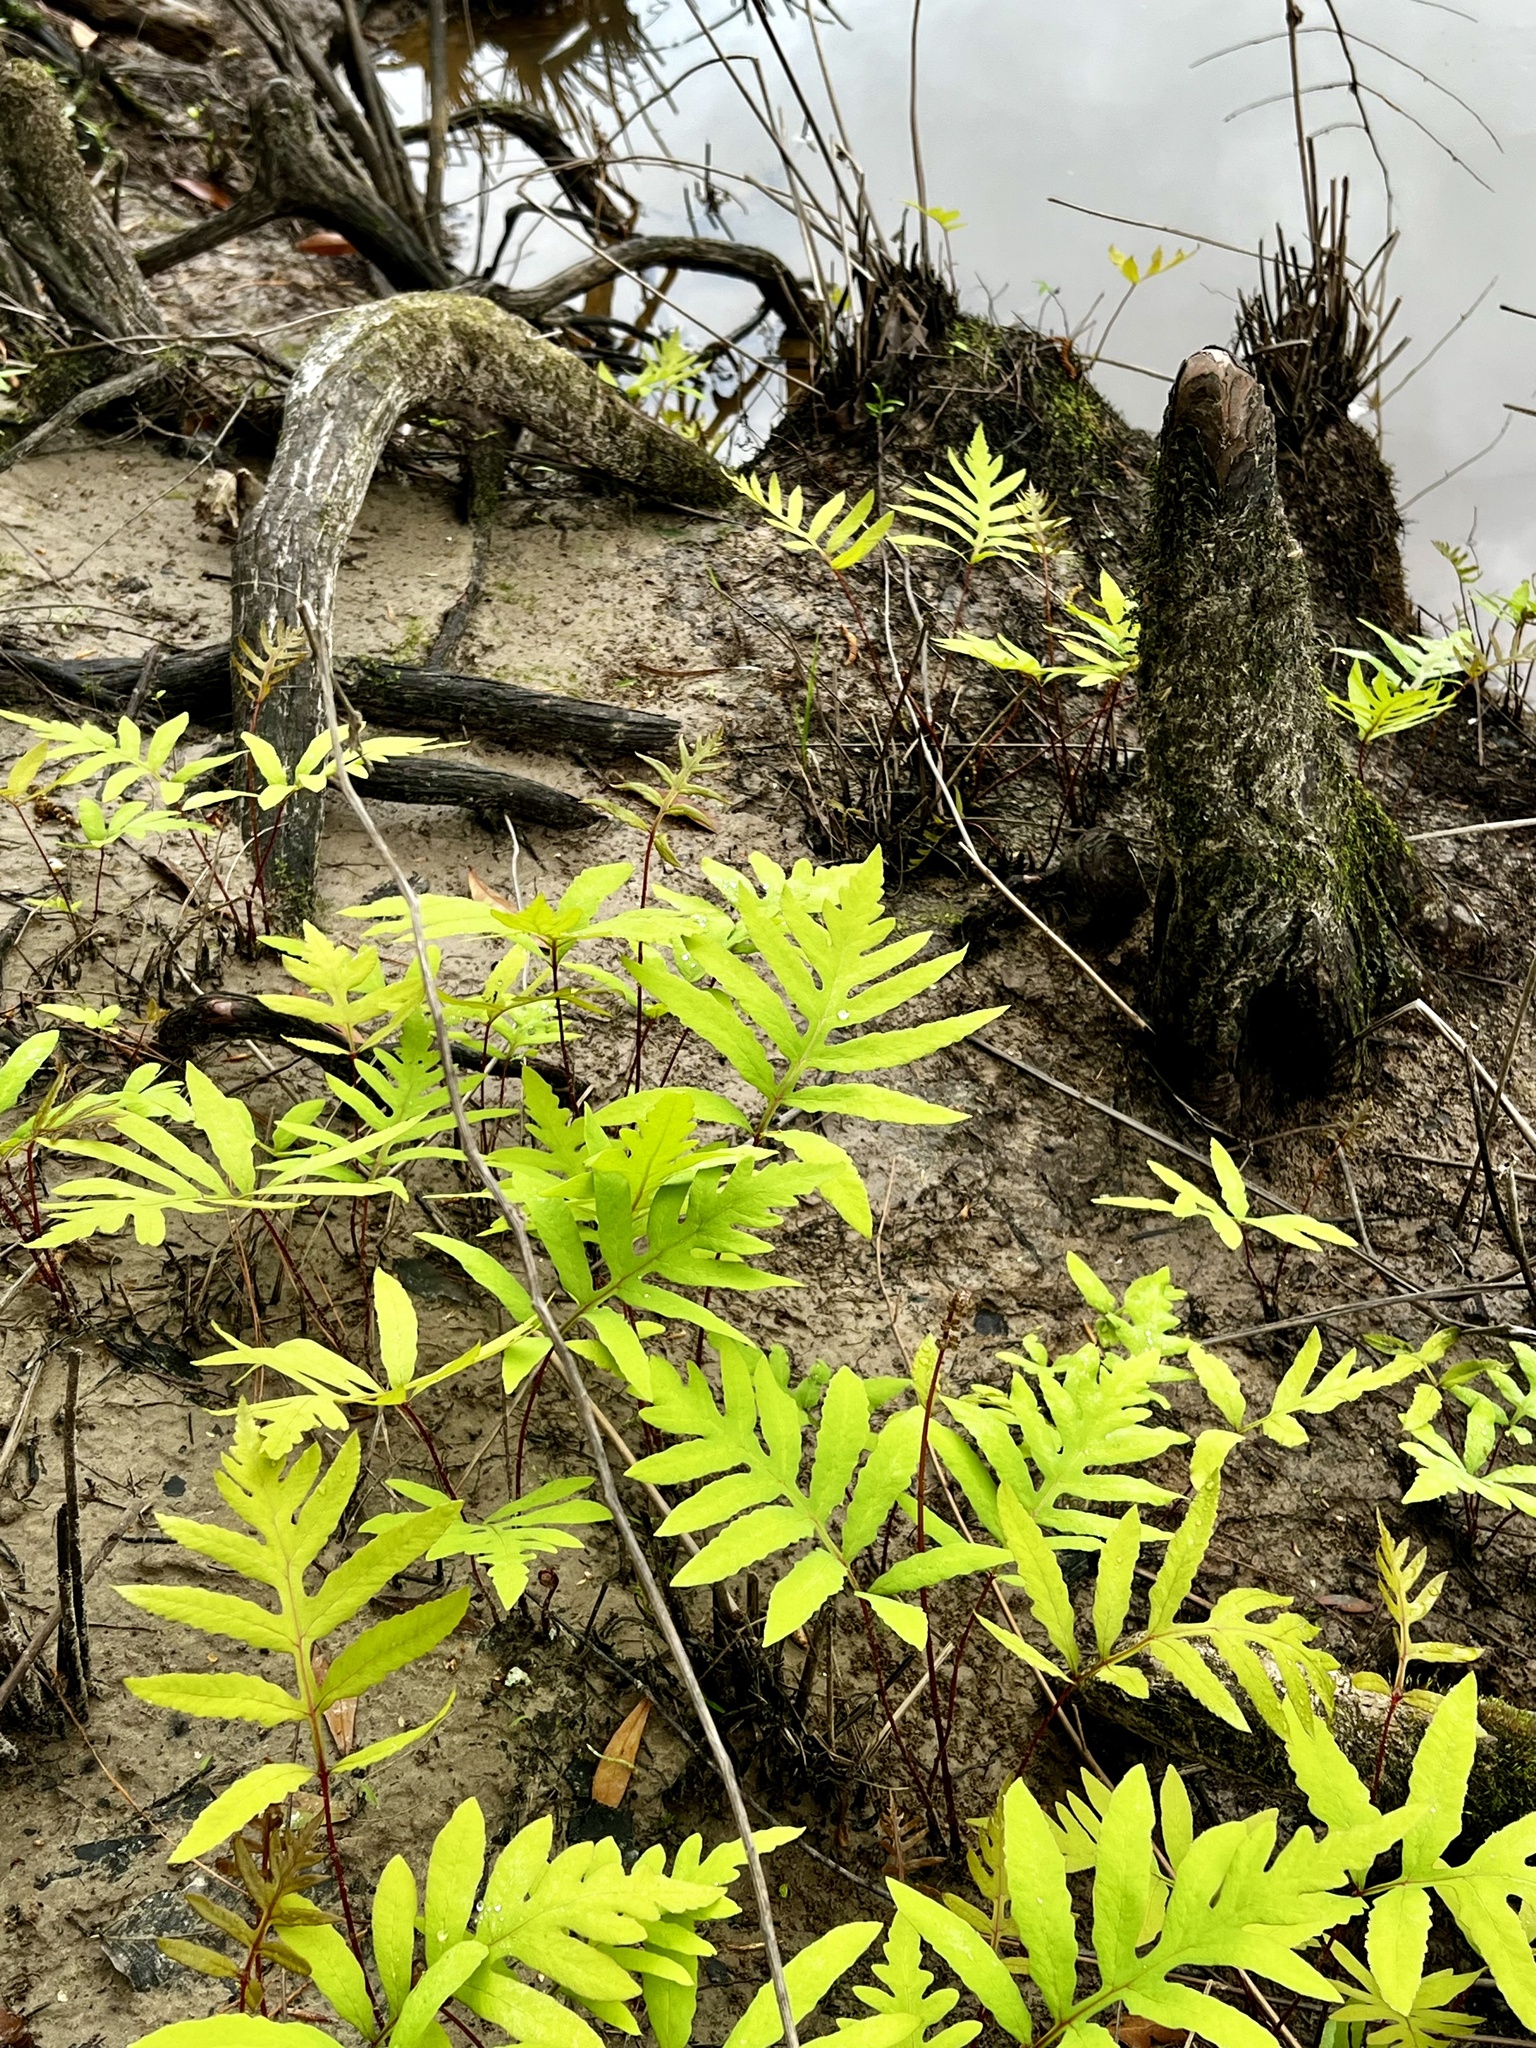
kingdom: Plantae
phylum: Tracheophyta
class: Polypodiopsida
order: Polypodiales
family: Onocleaceae
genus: Onoclea
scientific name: Onoclea sensibilis
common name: Sensitive fern
